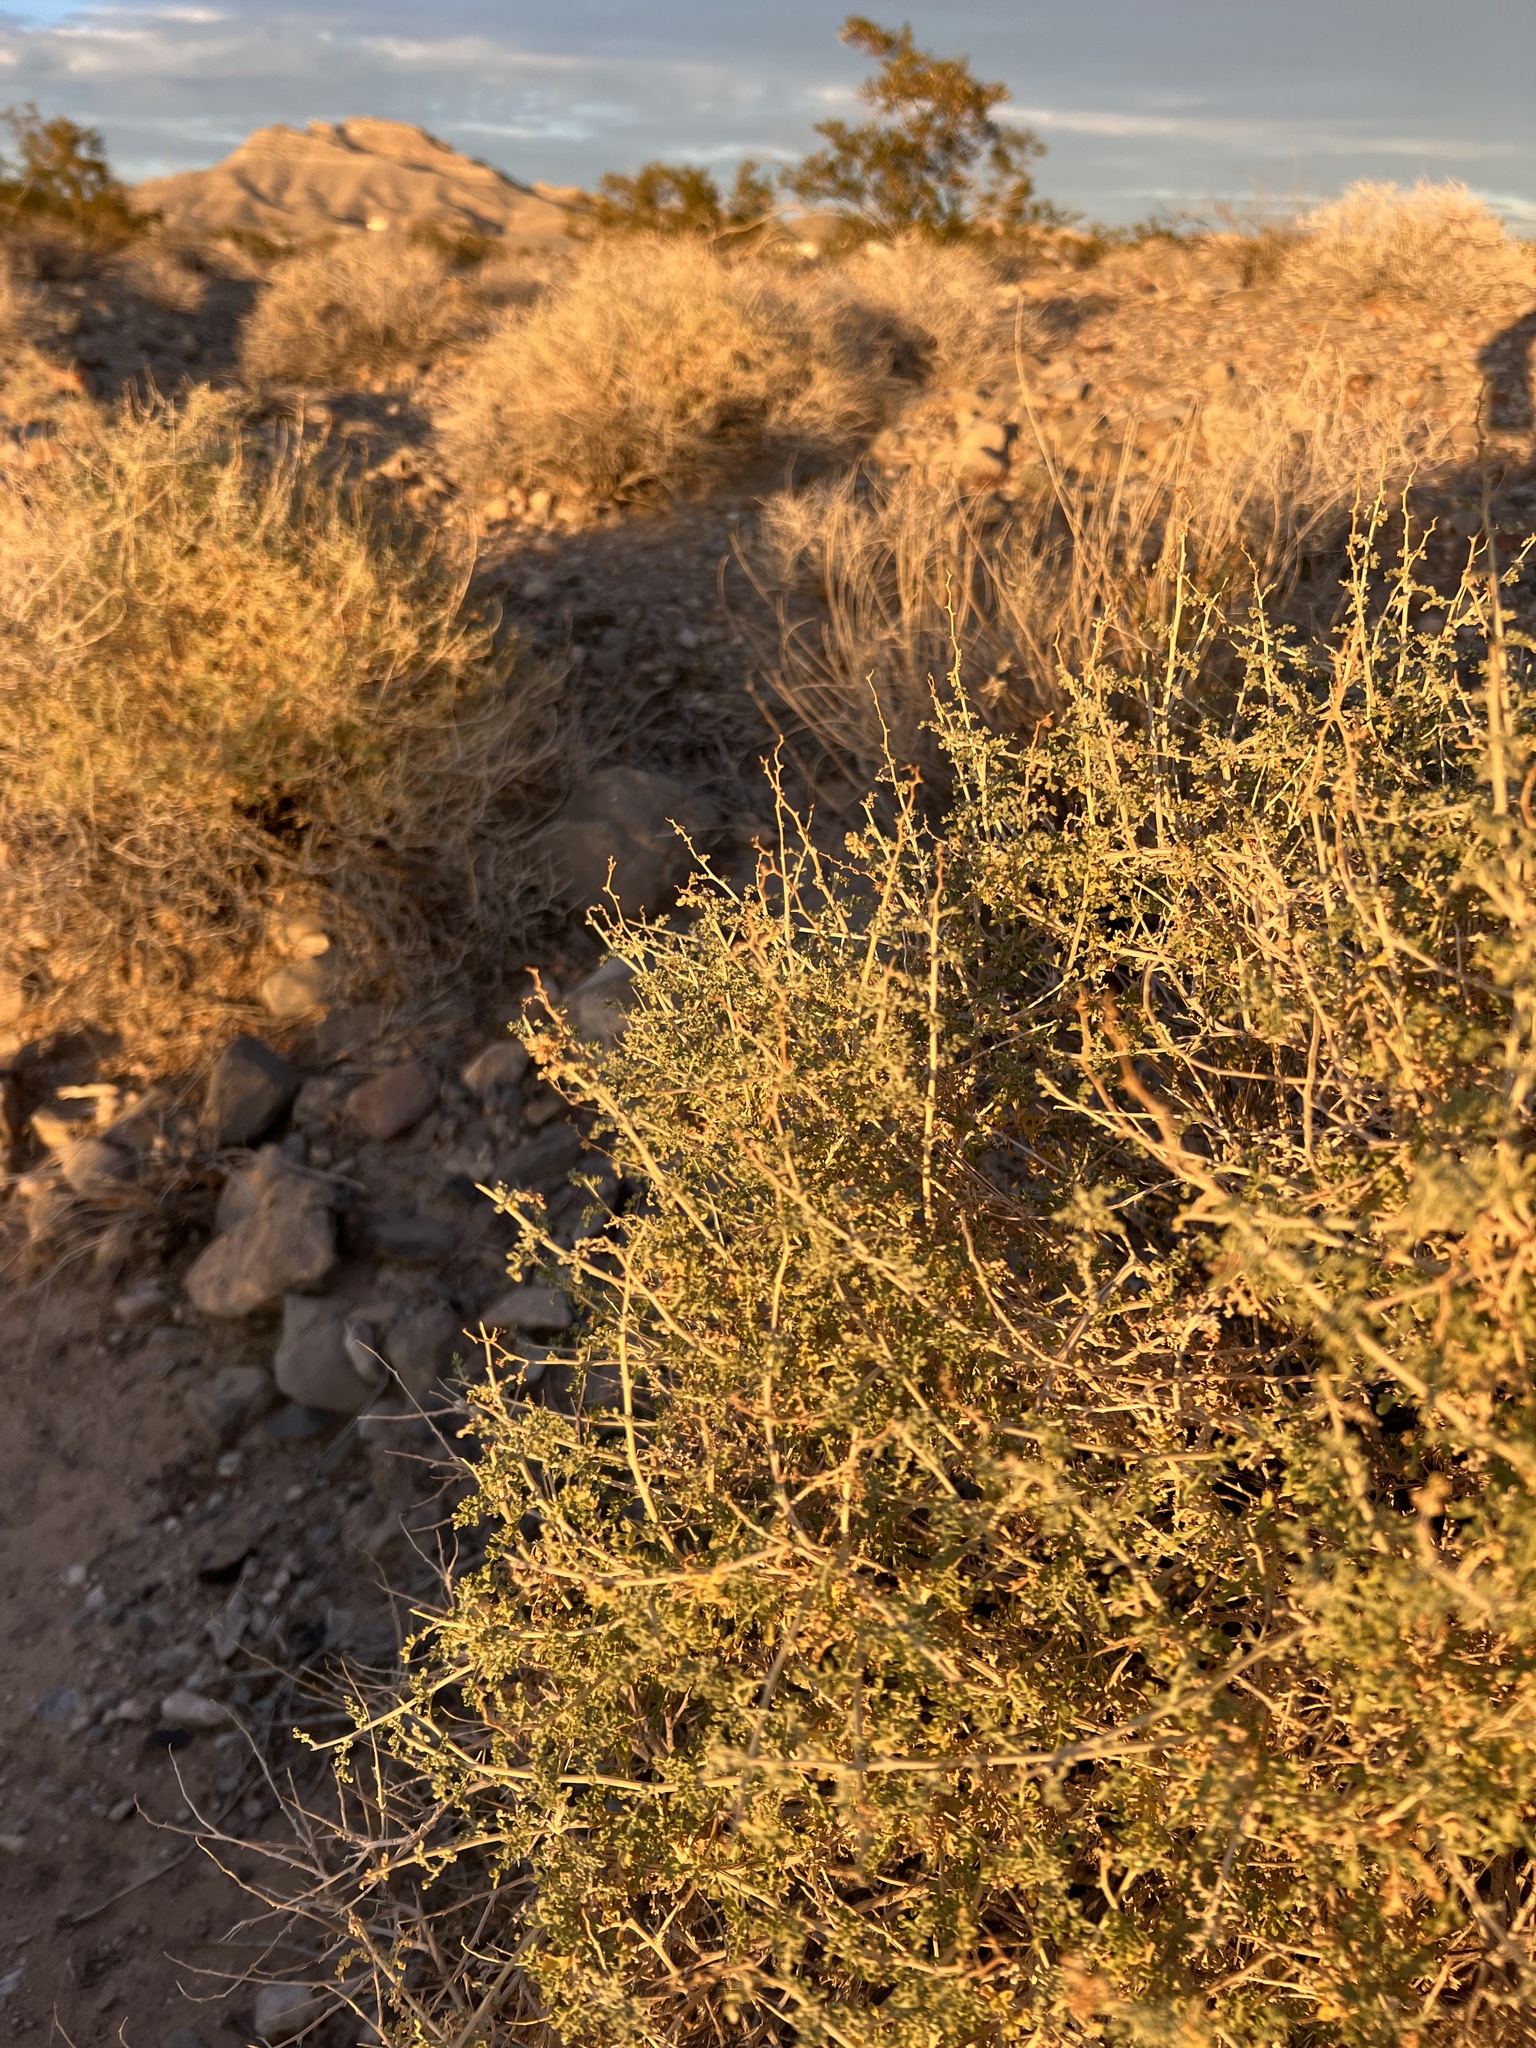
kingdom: Plantae
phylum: Tracheophyta
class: Magnoliopsida
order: Asterales
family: Asteraceae
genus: Ambrosia
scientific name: Ambrosia dumosa
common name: Bur-sage
